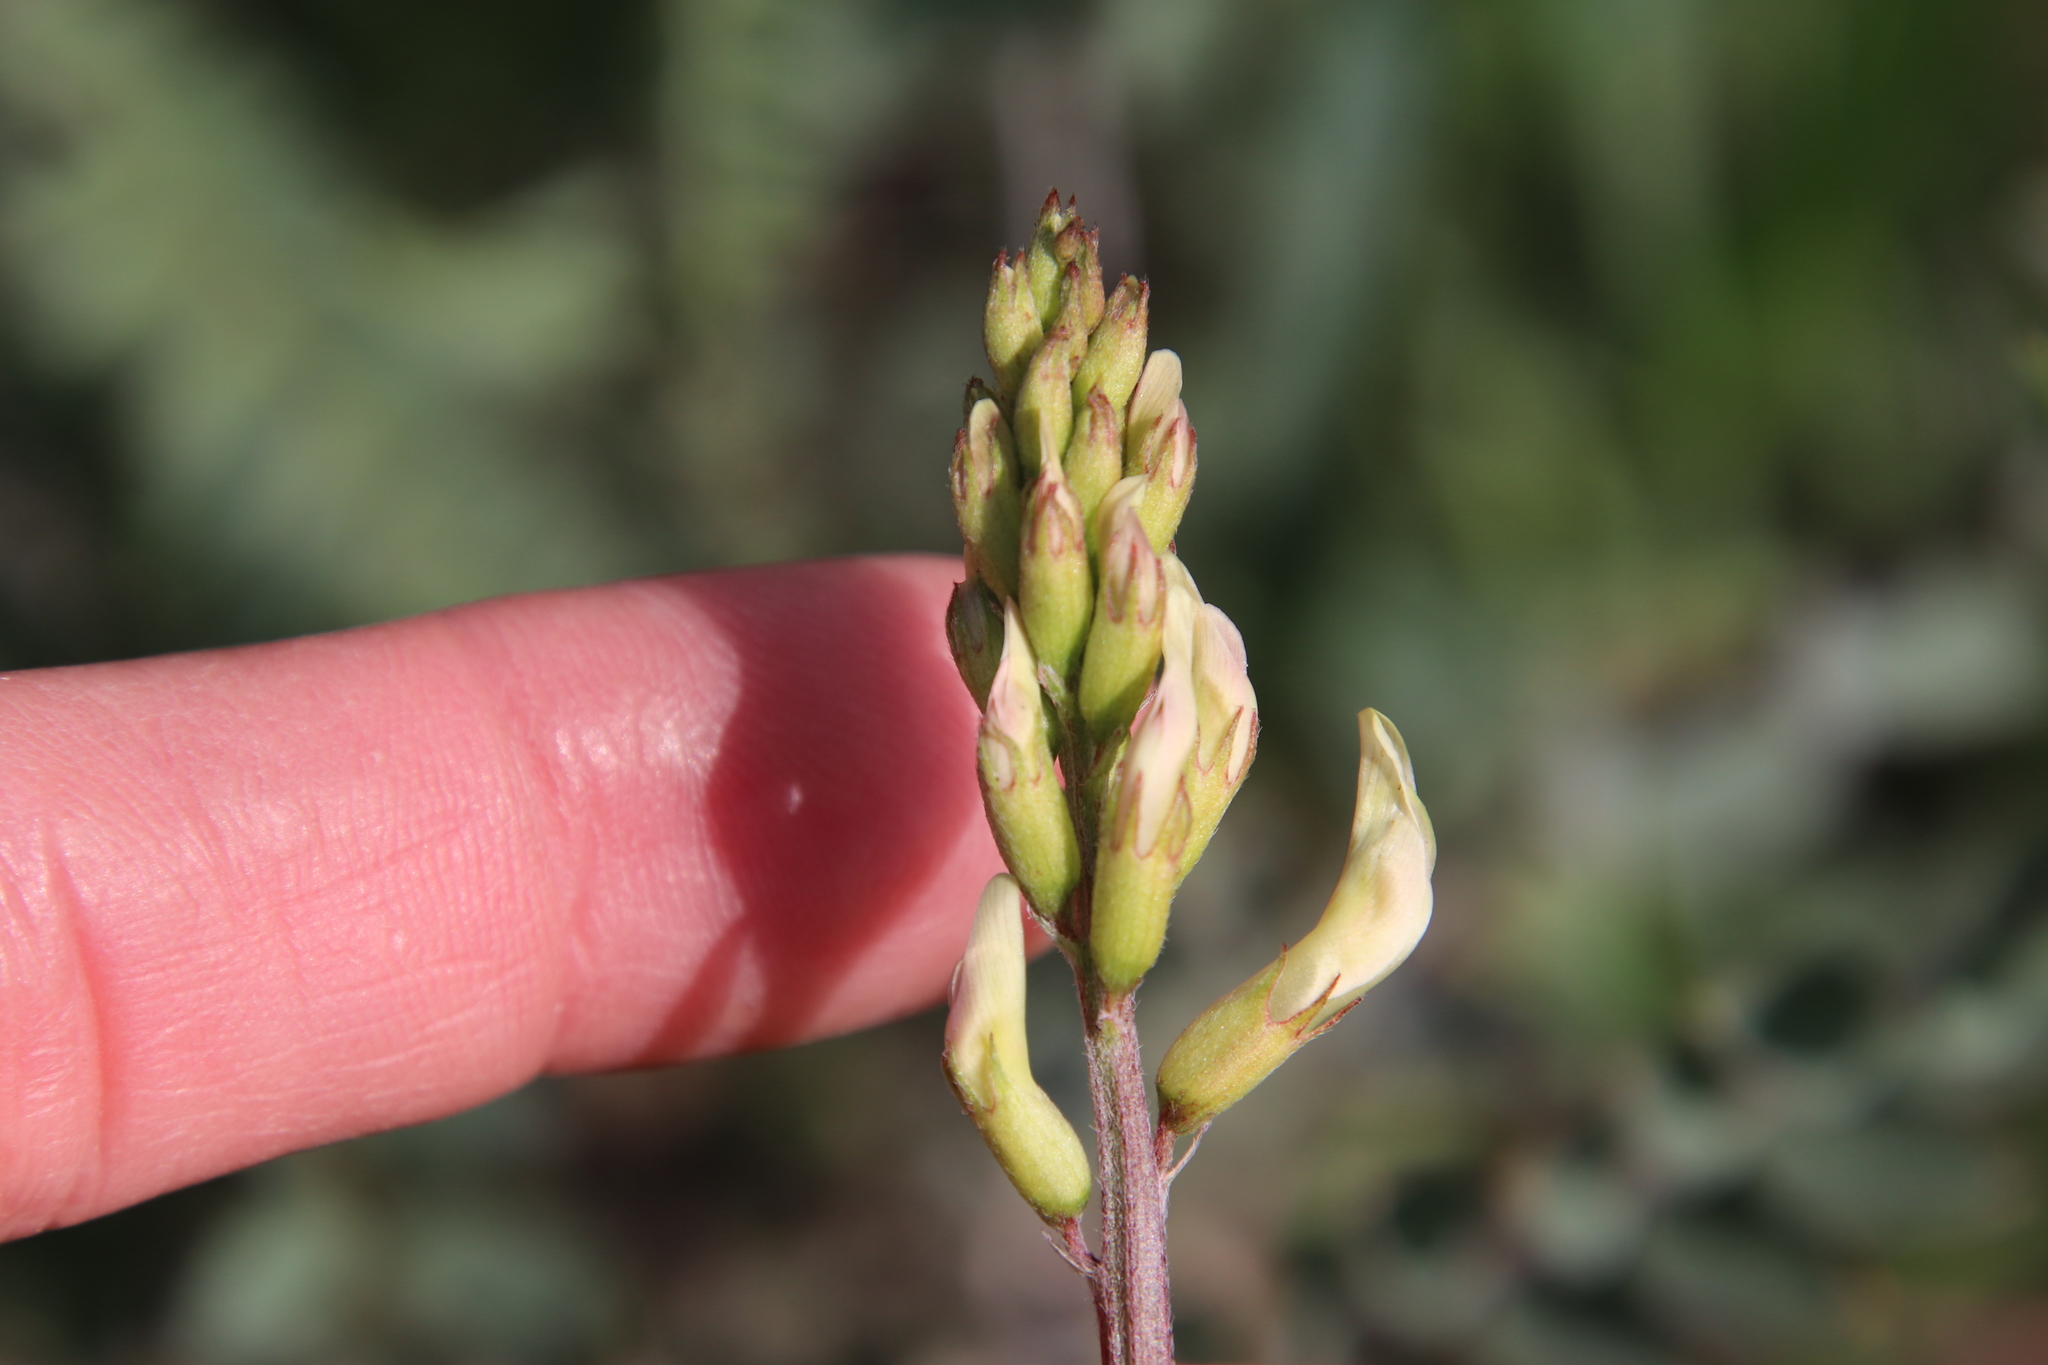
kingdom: Plantae
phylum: Tracheophyta
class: Magnoliopsida
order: Fabales
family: Fabaceae
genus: Astragalus
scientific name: Astragalus trichopodus
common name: Santa barbara milk-vetch
